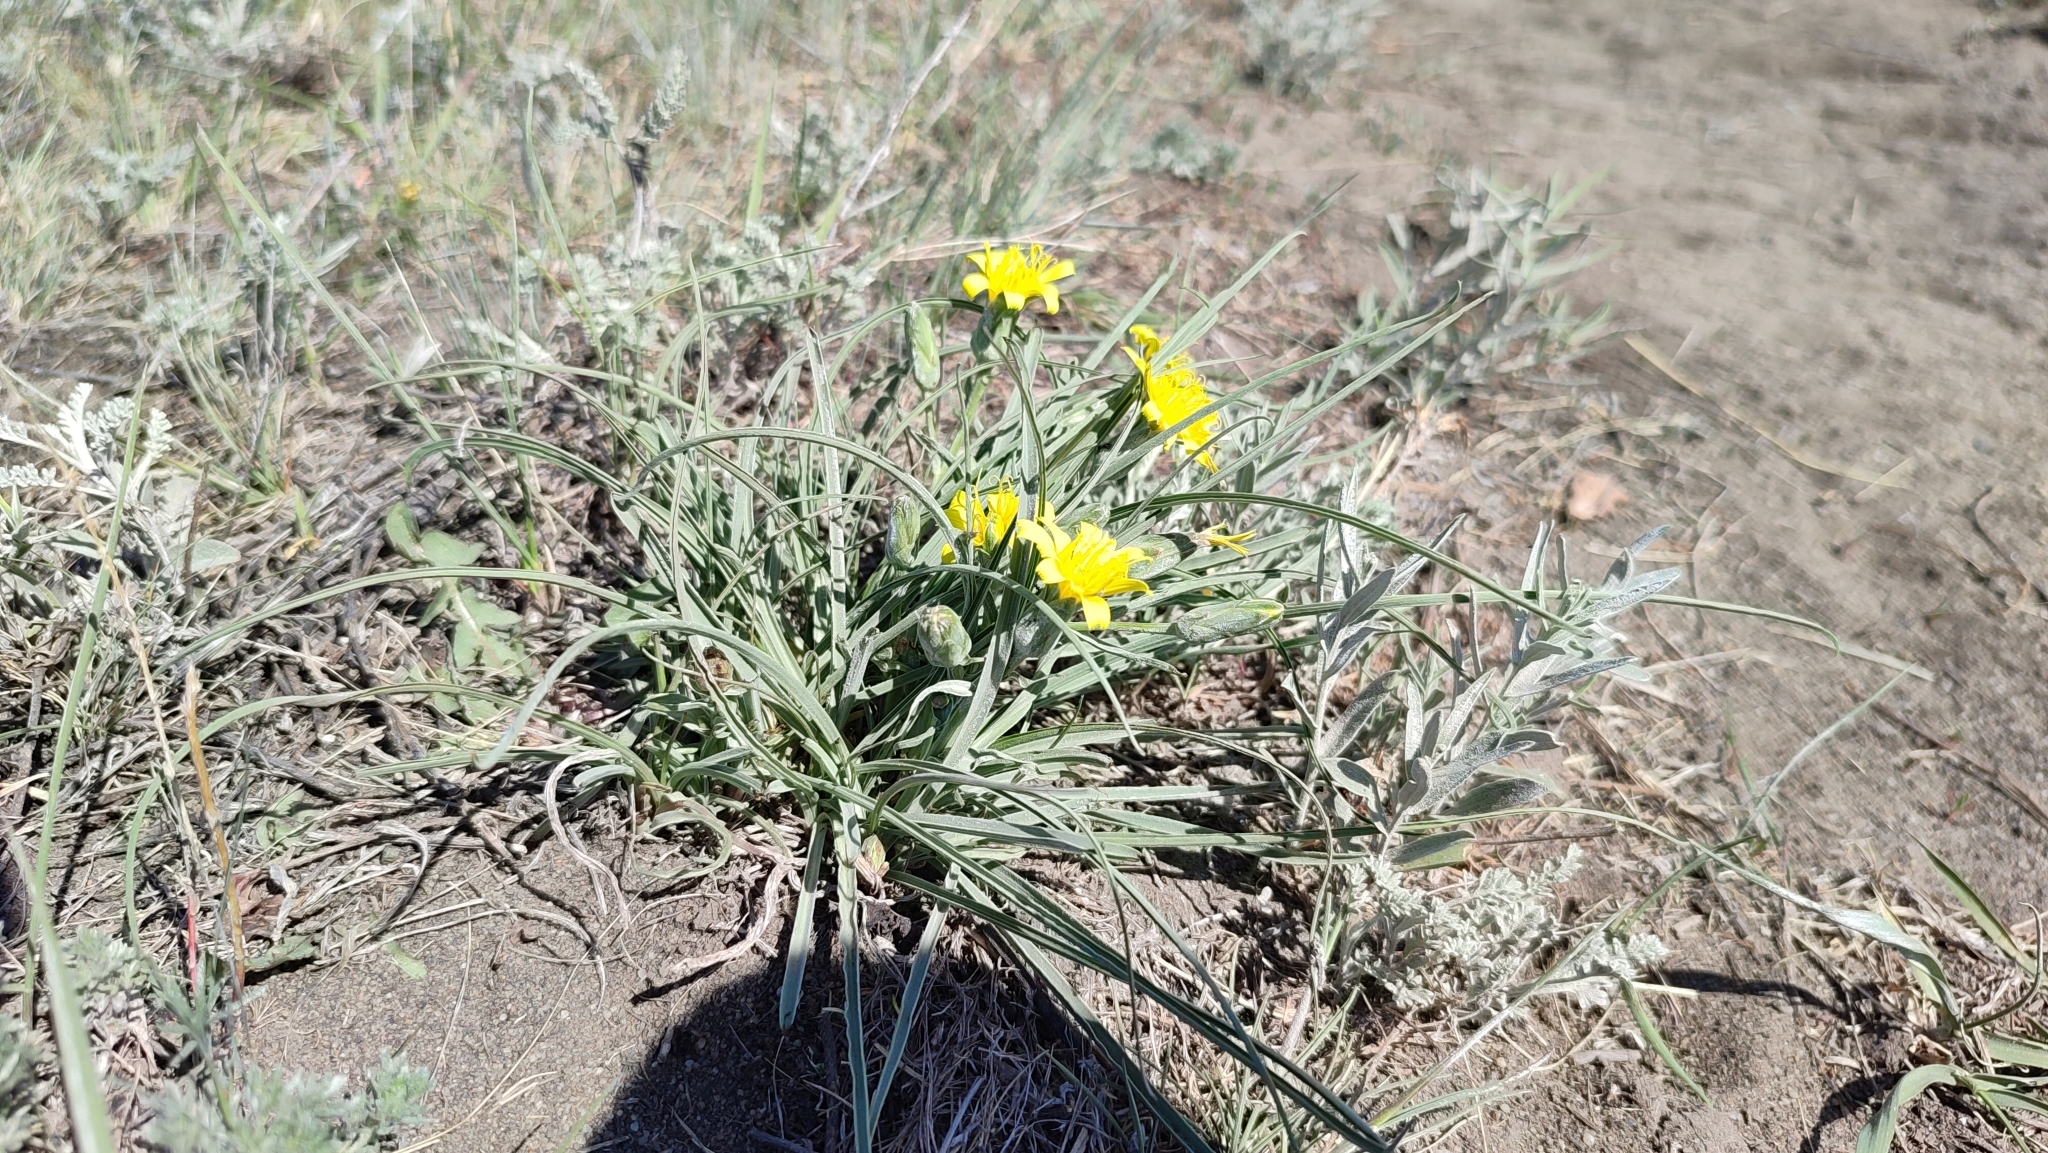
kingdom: Plantae
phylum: Tracheophyta
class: Magnoliopsida
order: Asterales
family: Asteraceae
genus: Takhtajaniantha
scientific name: Takhtajaniantha austriaca
